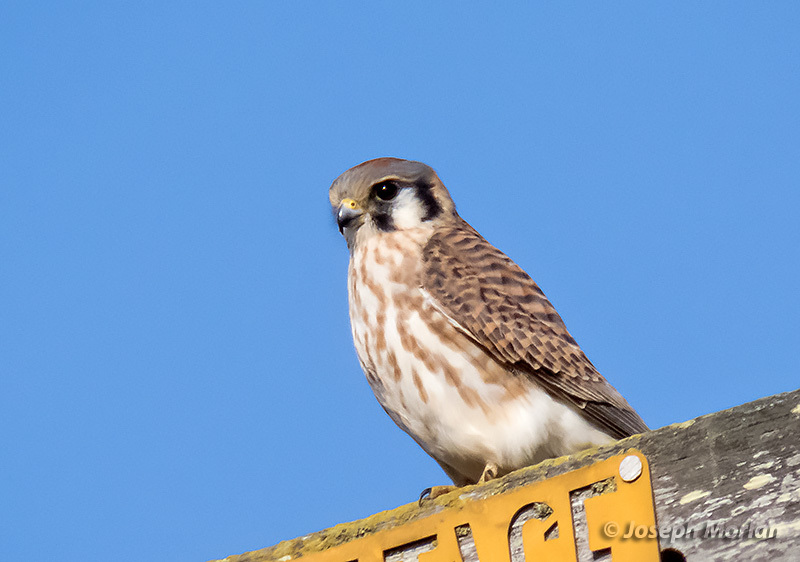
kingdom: Animalia
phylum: Chordata
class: Aves
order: Falconiformes
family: Falconidae
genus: Falco
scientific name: Falco sparverius
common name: American kestrel
